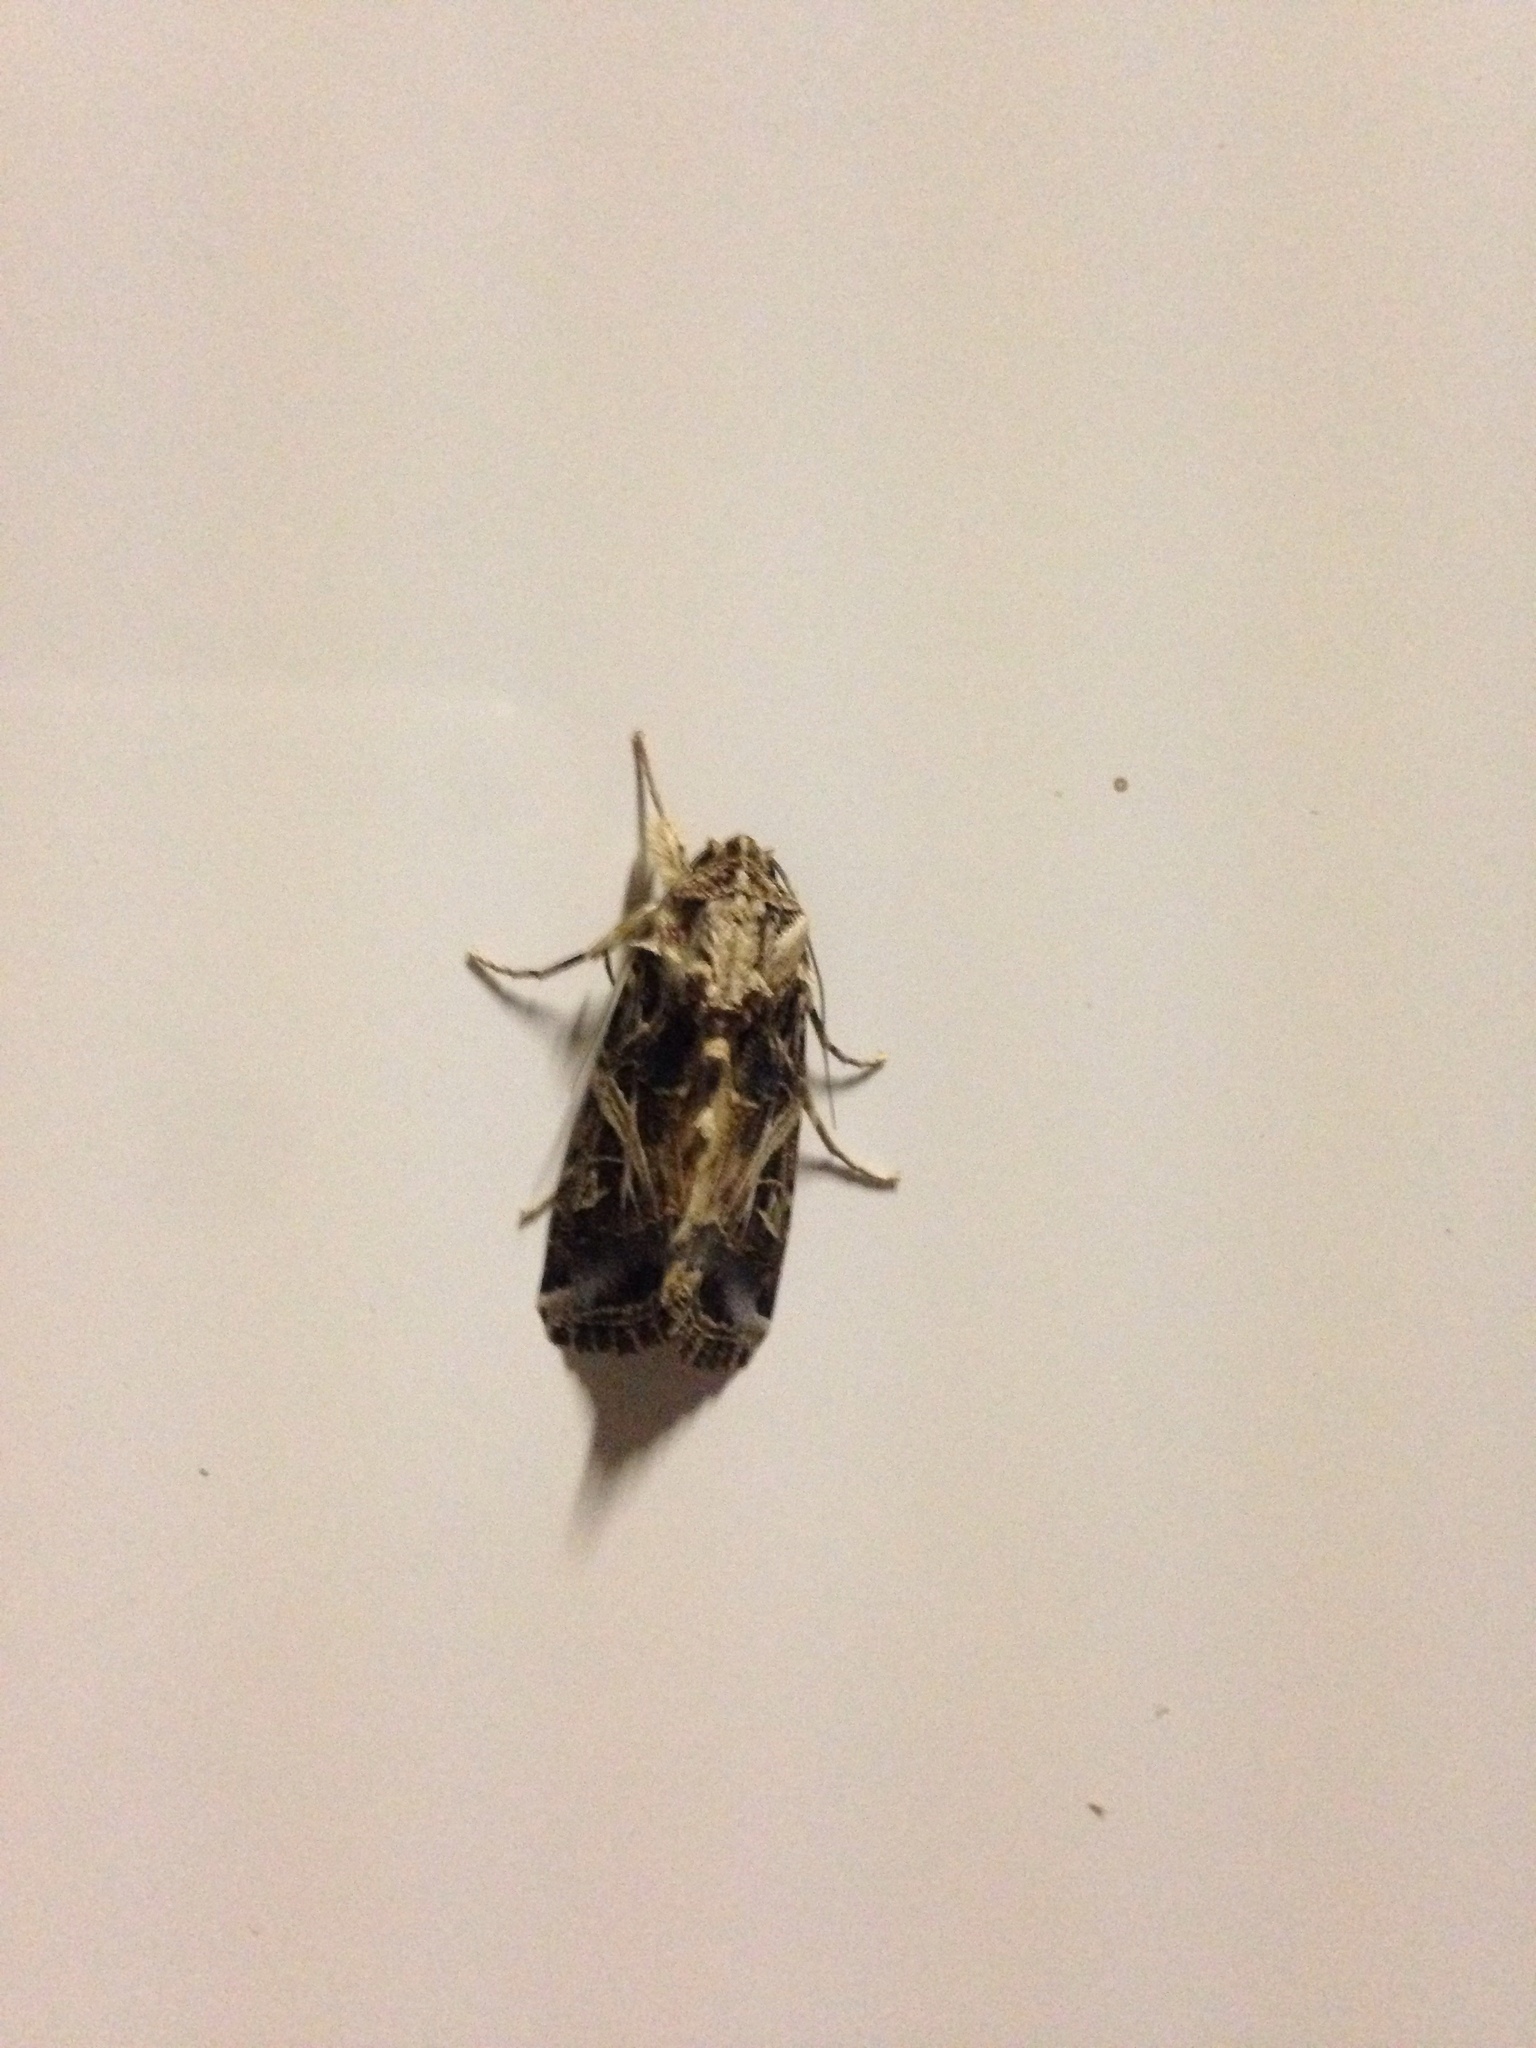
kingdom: Animalia
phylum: Arthropoda
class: Insecta
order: Lepidoptera
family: Noctuidae
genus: Spodoptera
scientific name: Spodoptera littoralis
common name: Egyptian cotton leafworm
